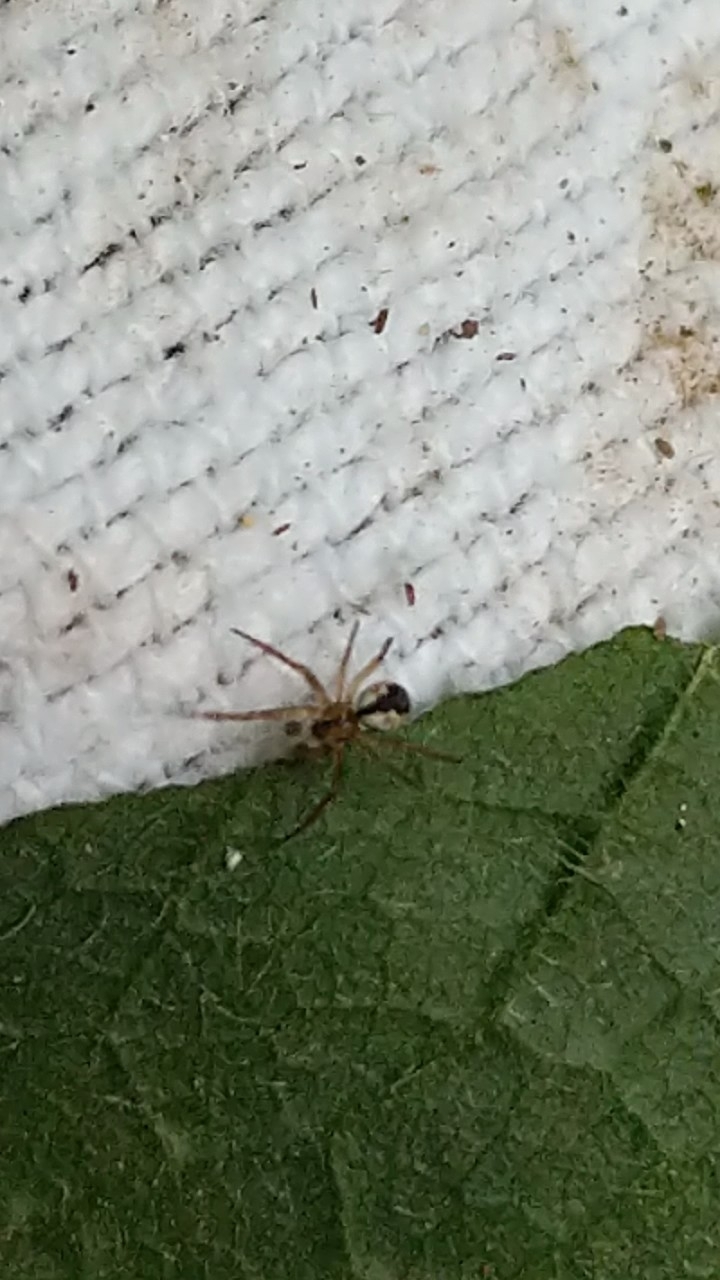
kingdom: Animalia
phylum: Arthropoda
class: Arachnida
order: Araneae
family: Araneidae
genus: Mangora
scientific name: Mangora placida
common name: Tuft-legged orbweaver
